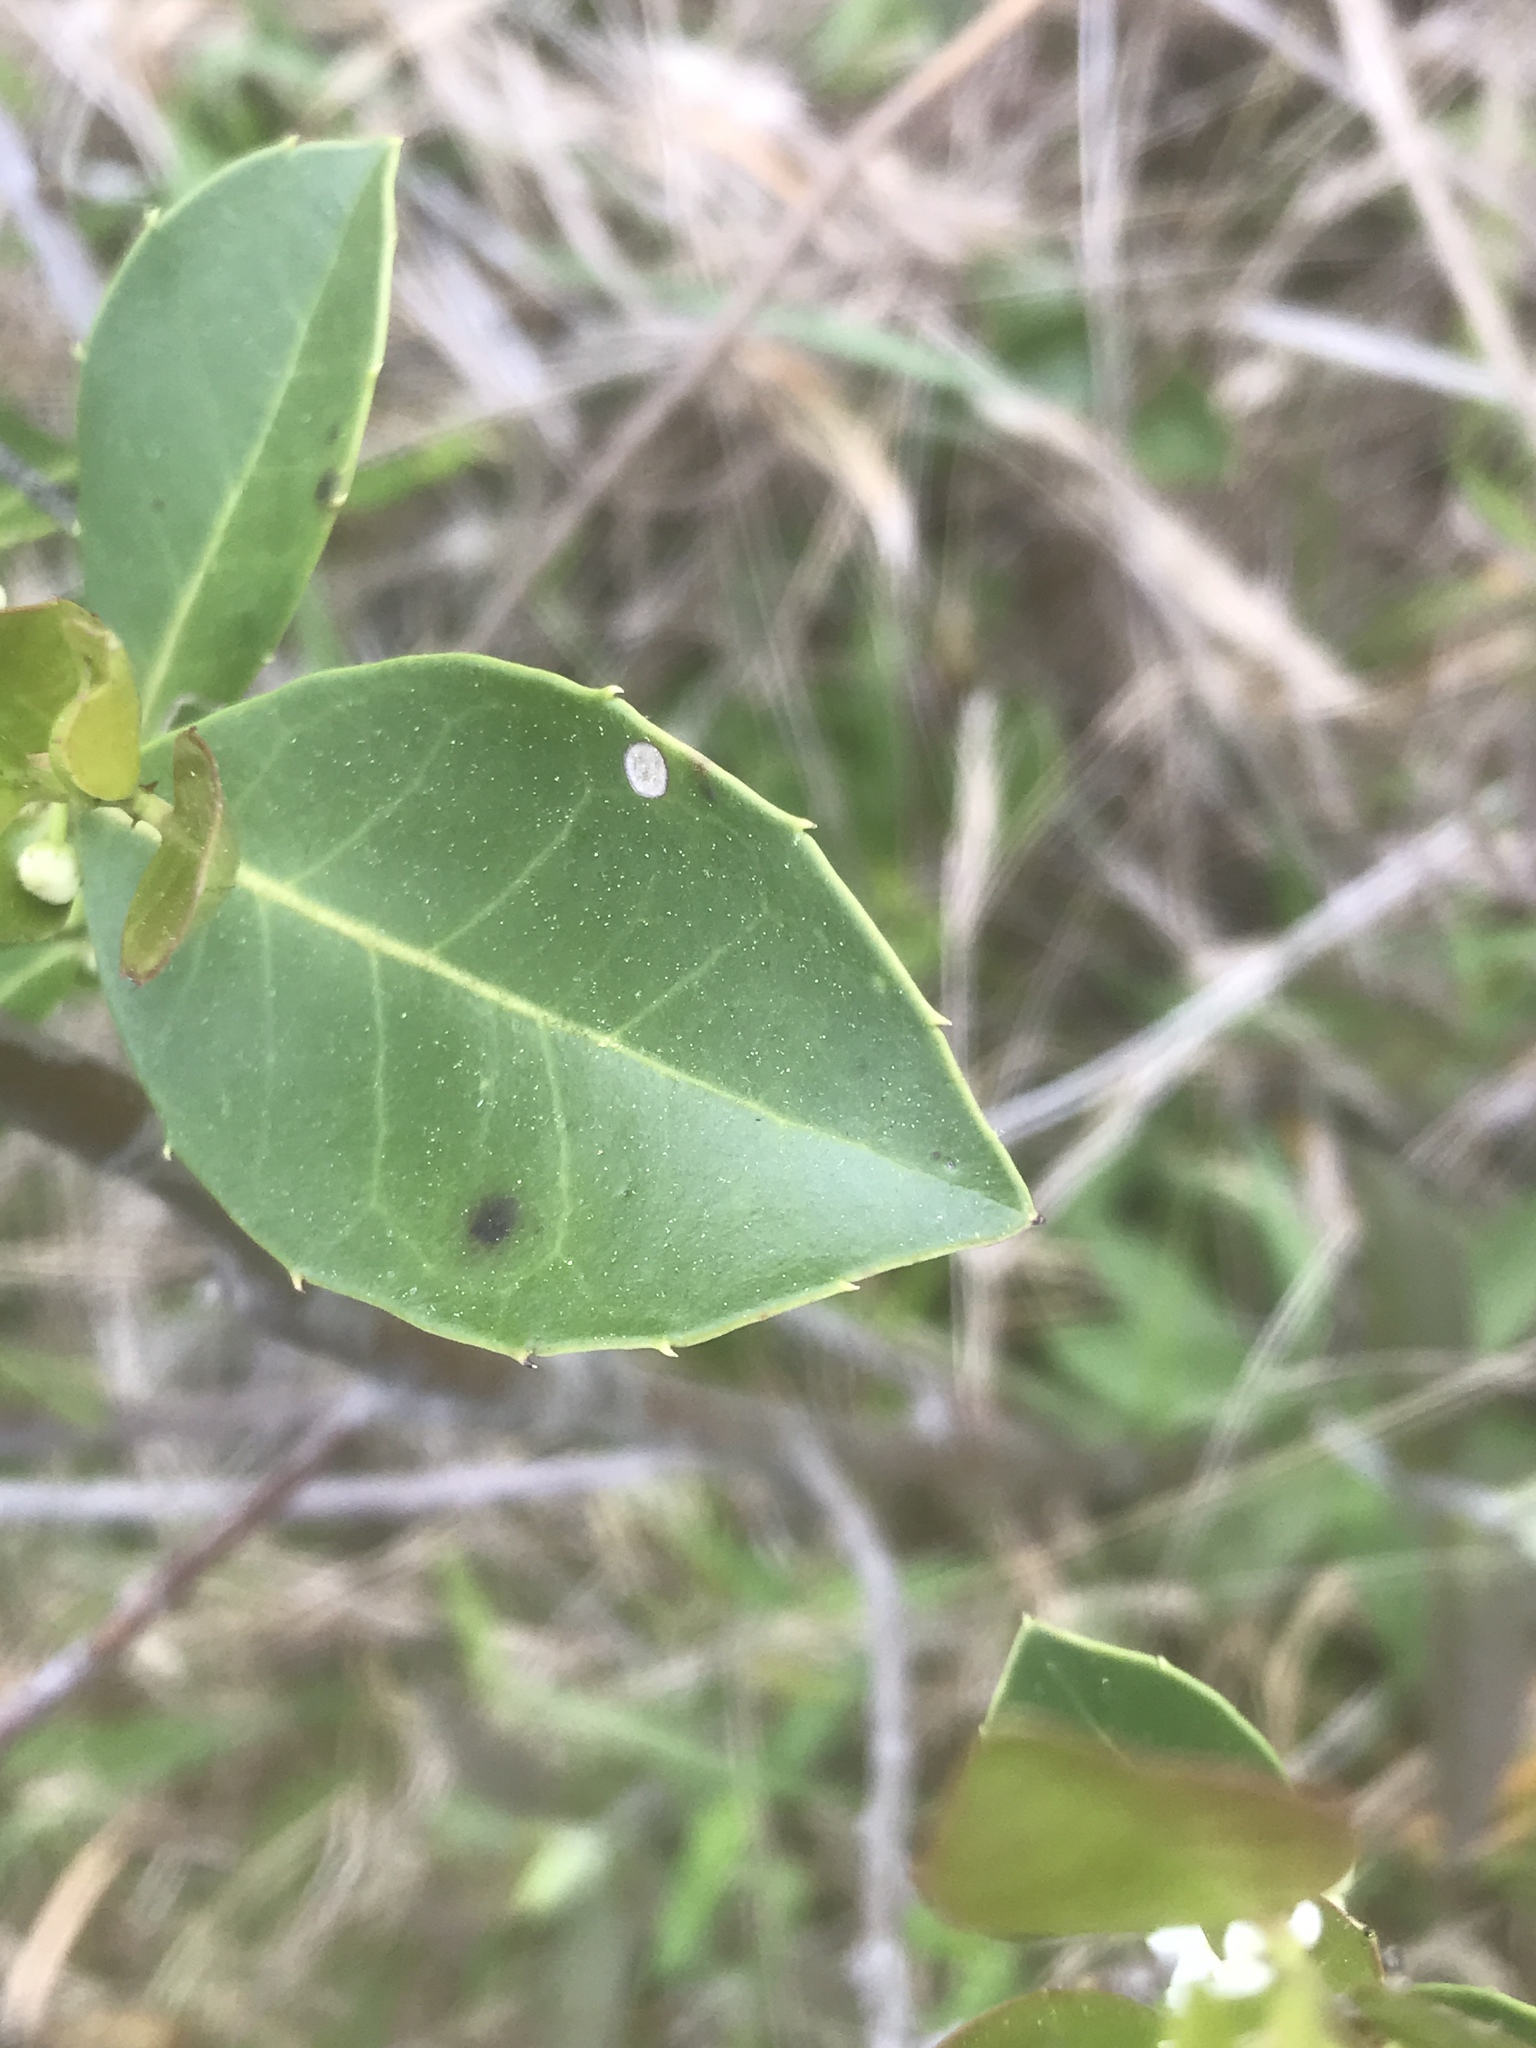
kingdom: Plantae
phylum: Tracheophyta
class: Magnoliopsida
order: Aquifoliales
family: Aquifoliaceae
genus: Ilex
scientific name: Ilex coriacea
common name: Sweet gallberry
